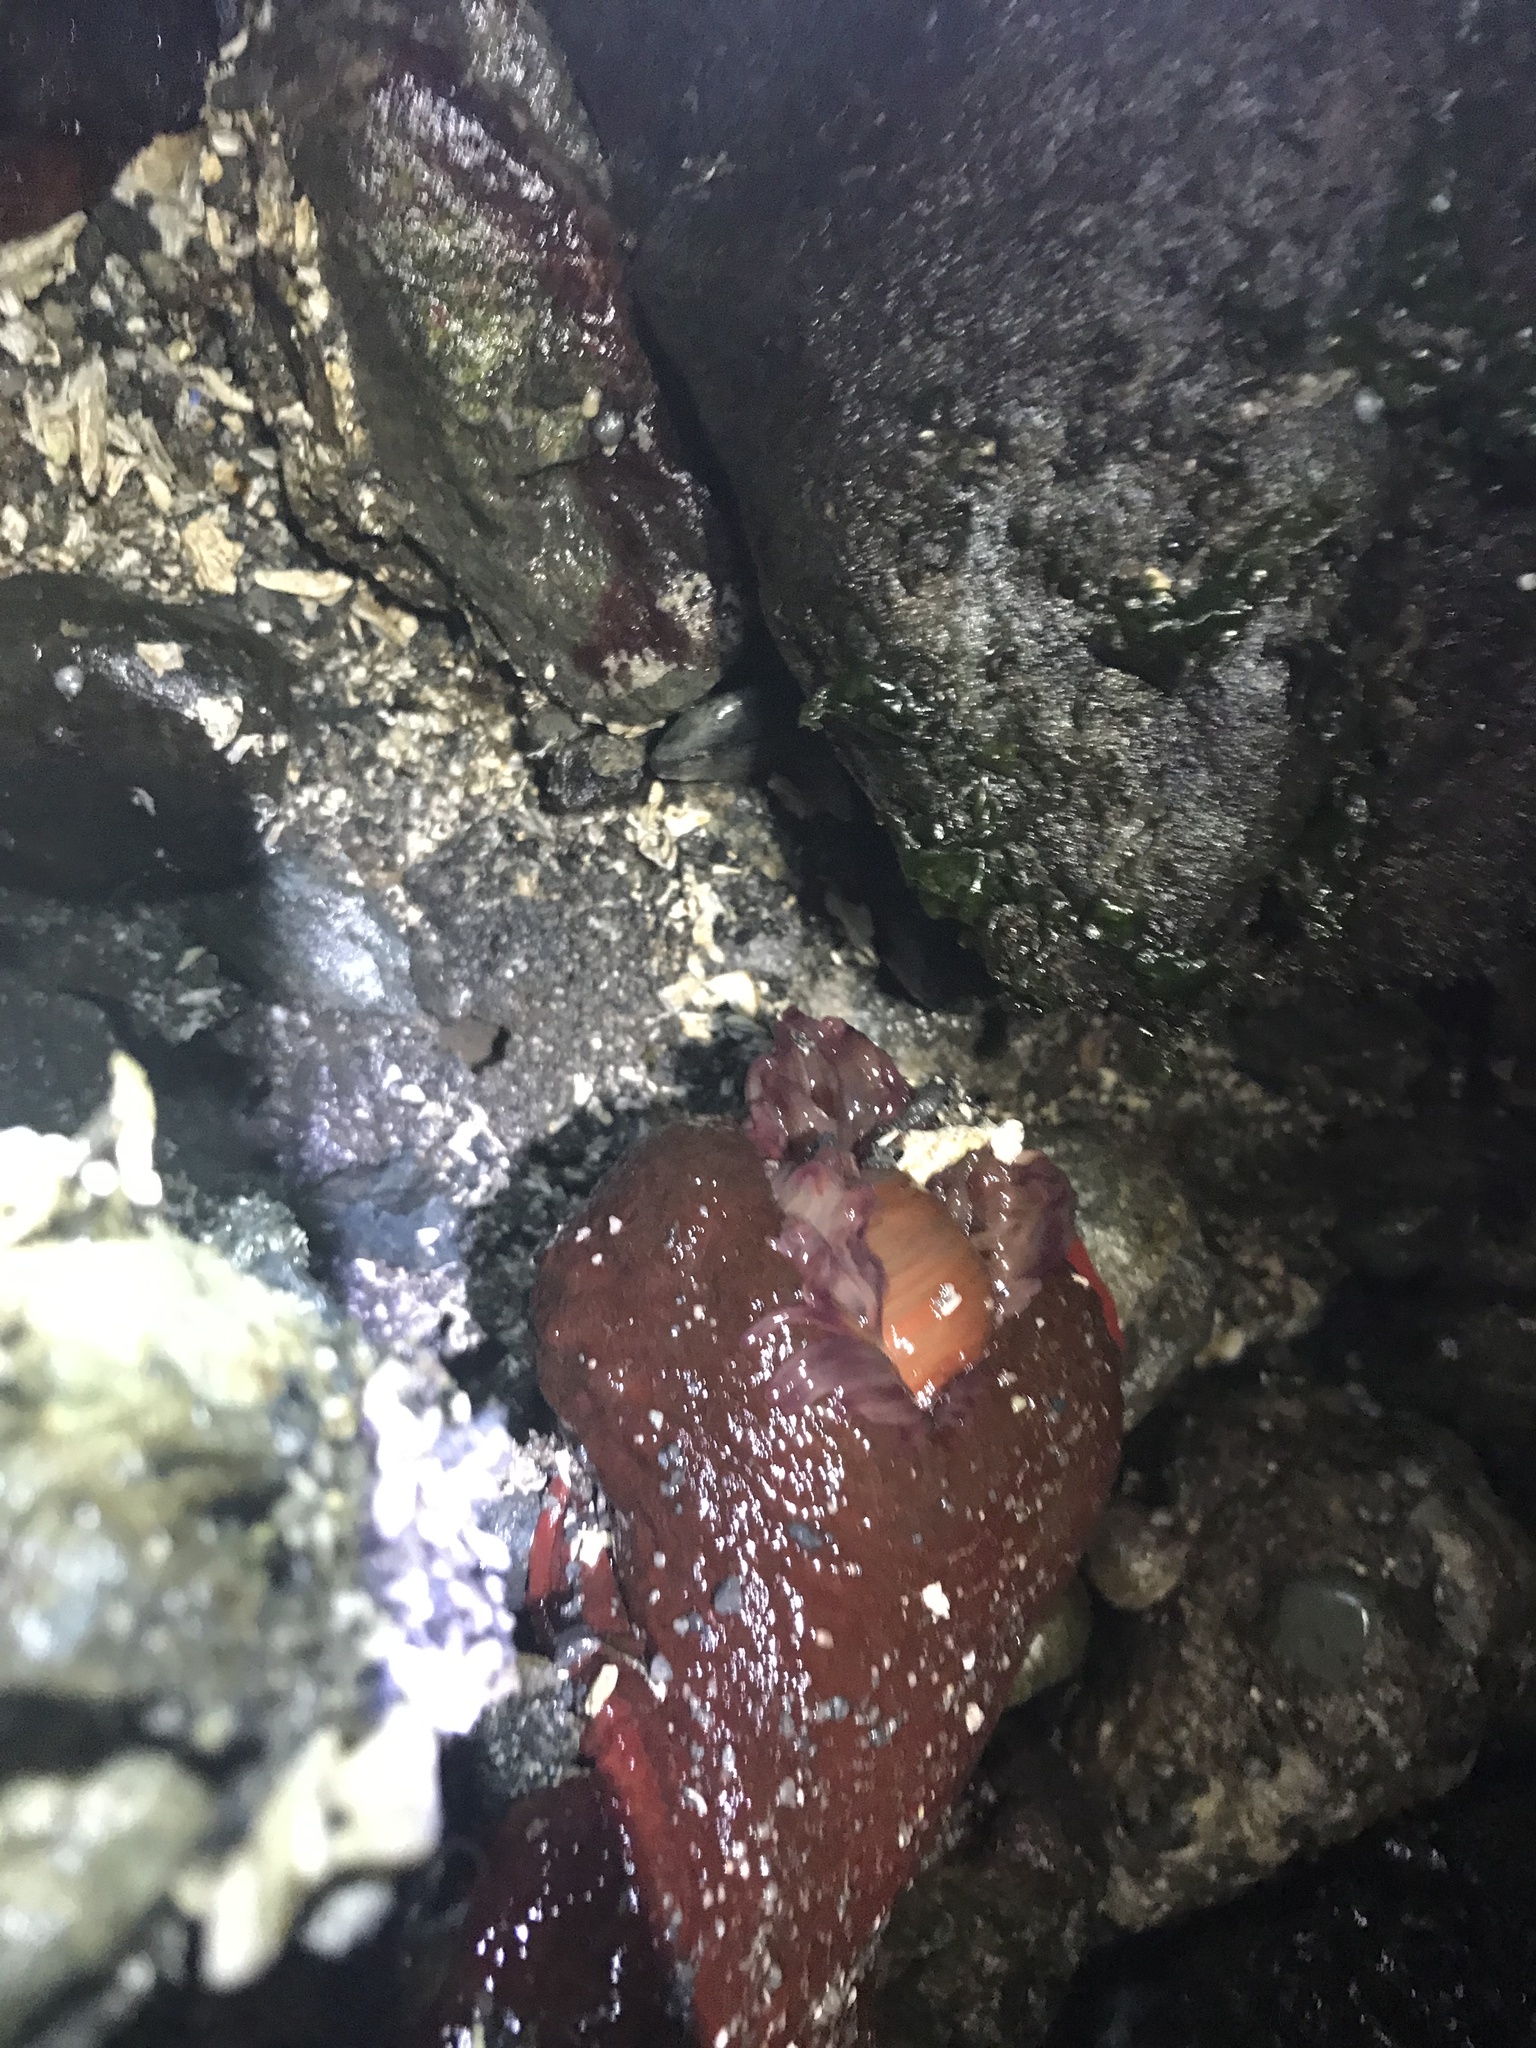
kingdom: Animalia
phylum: Cnidaria
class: Anthozoa
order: Actiniaria
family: Actiniidae
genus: Urticina
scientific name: Urticina grebelnyi
